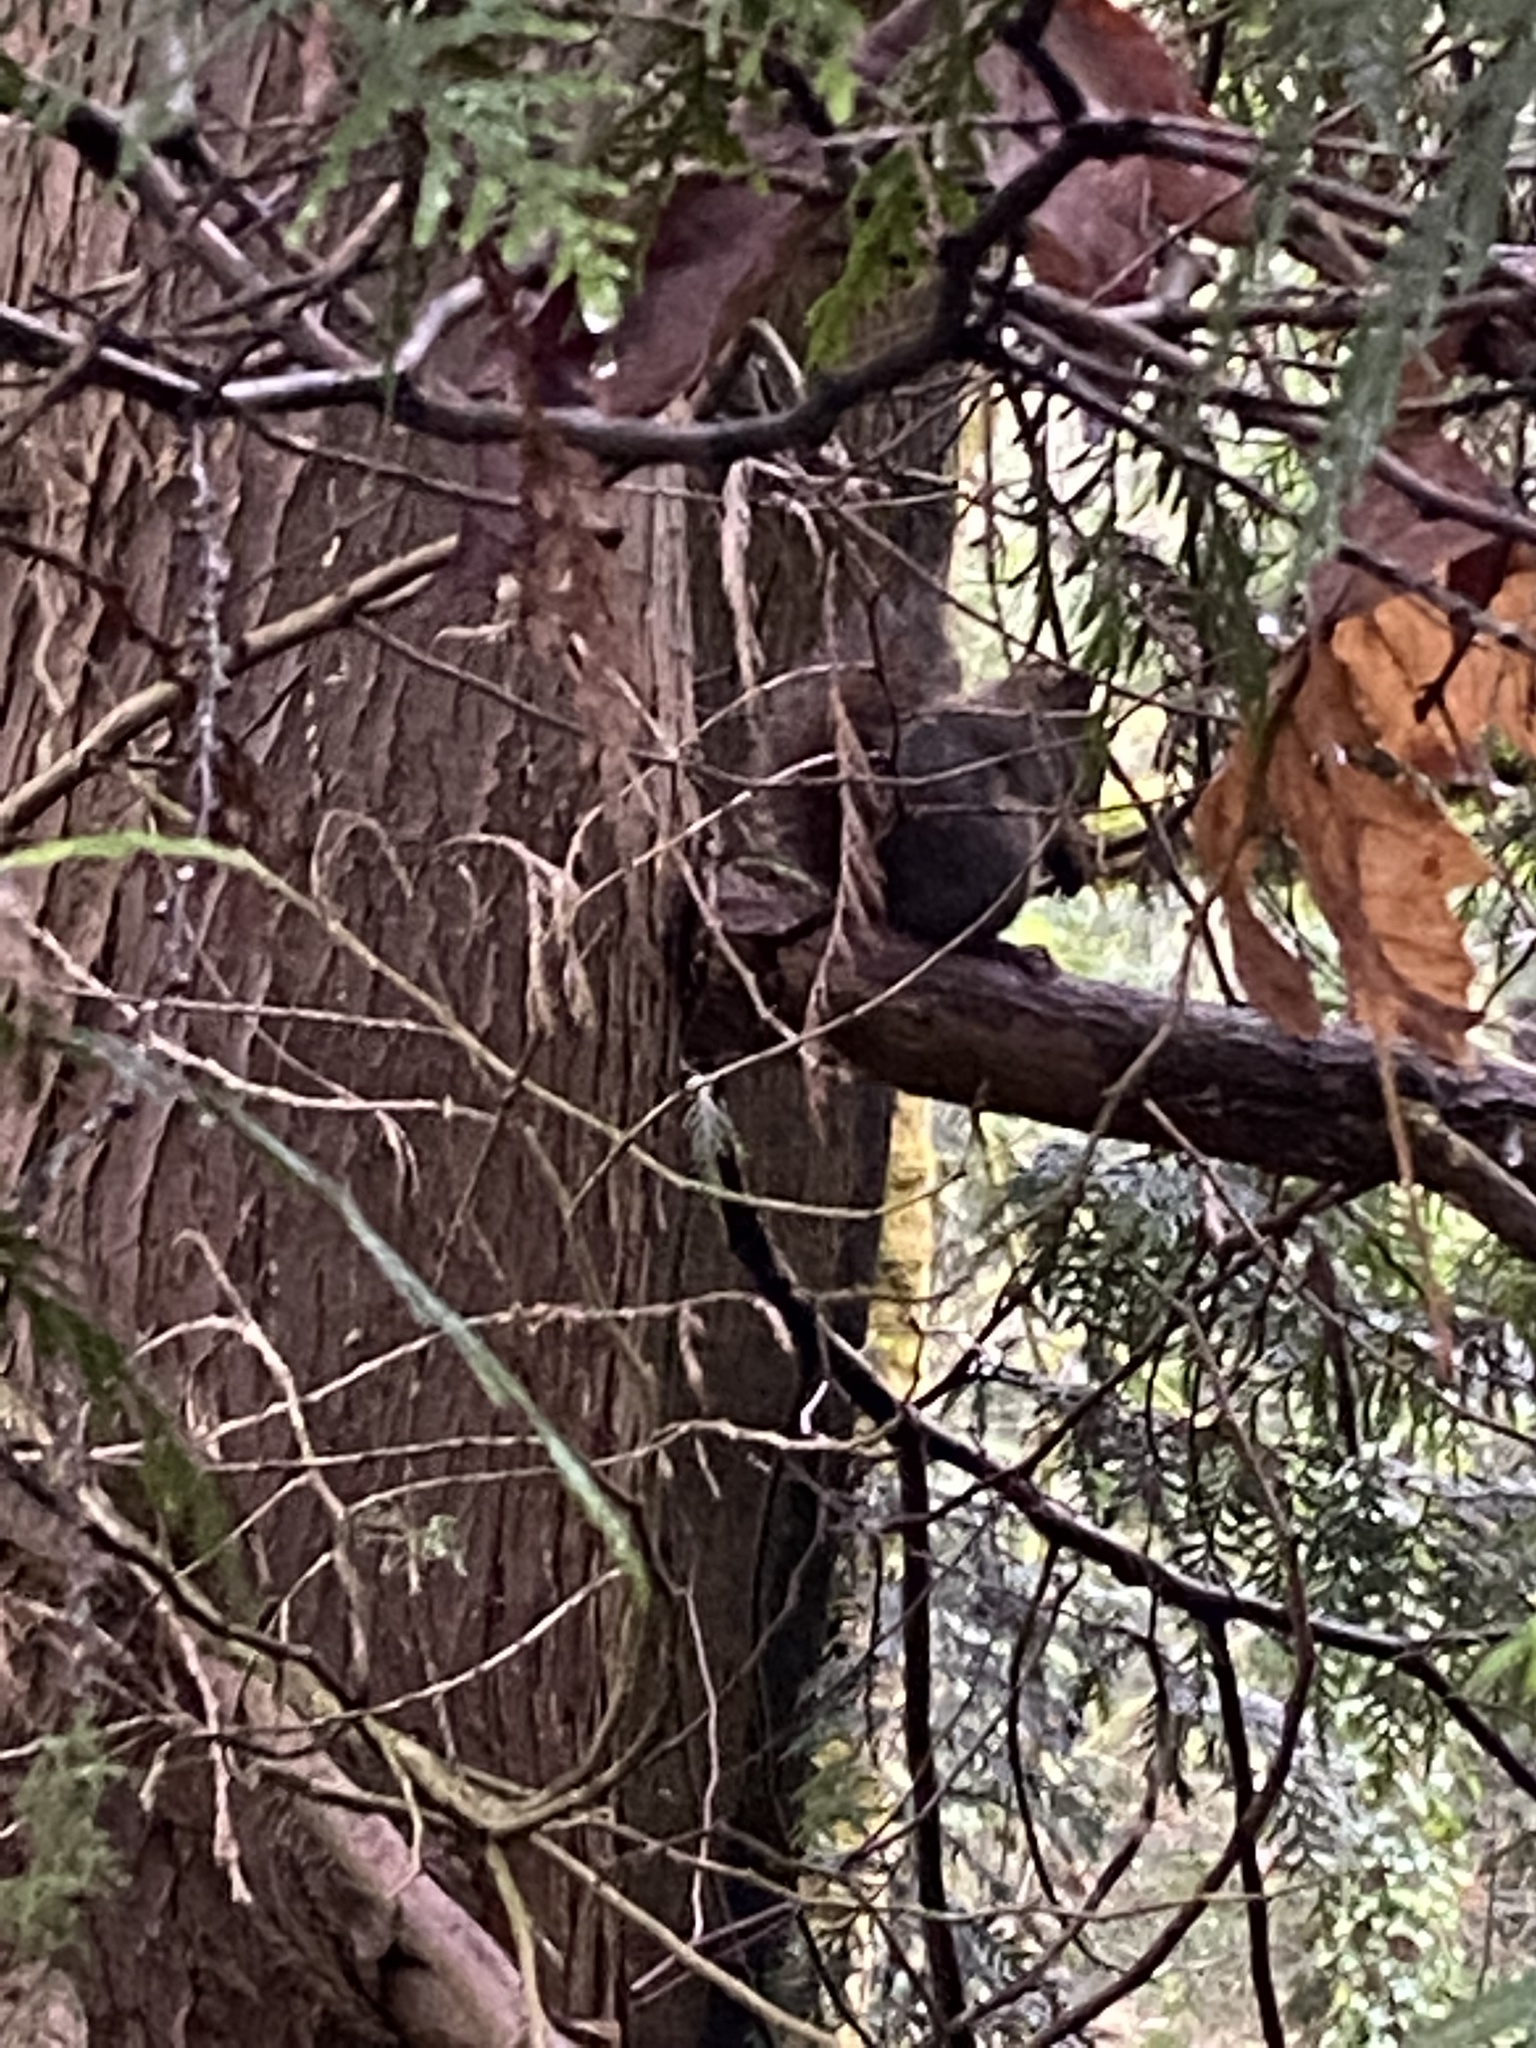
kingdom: Animalia
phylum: Chordata
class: Mammalia
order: Rodentia
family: Sciuridae
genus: Sciurus
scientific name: Sciurus carolinensis
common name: Eastern gray squirrel
